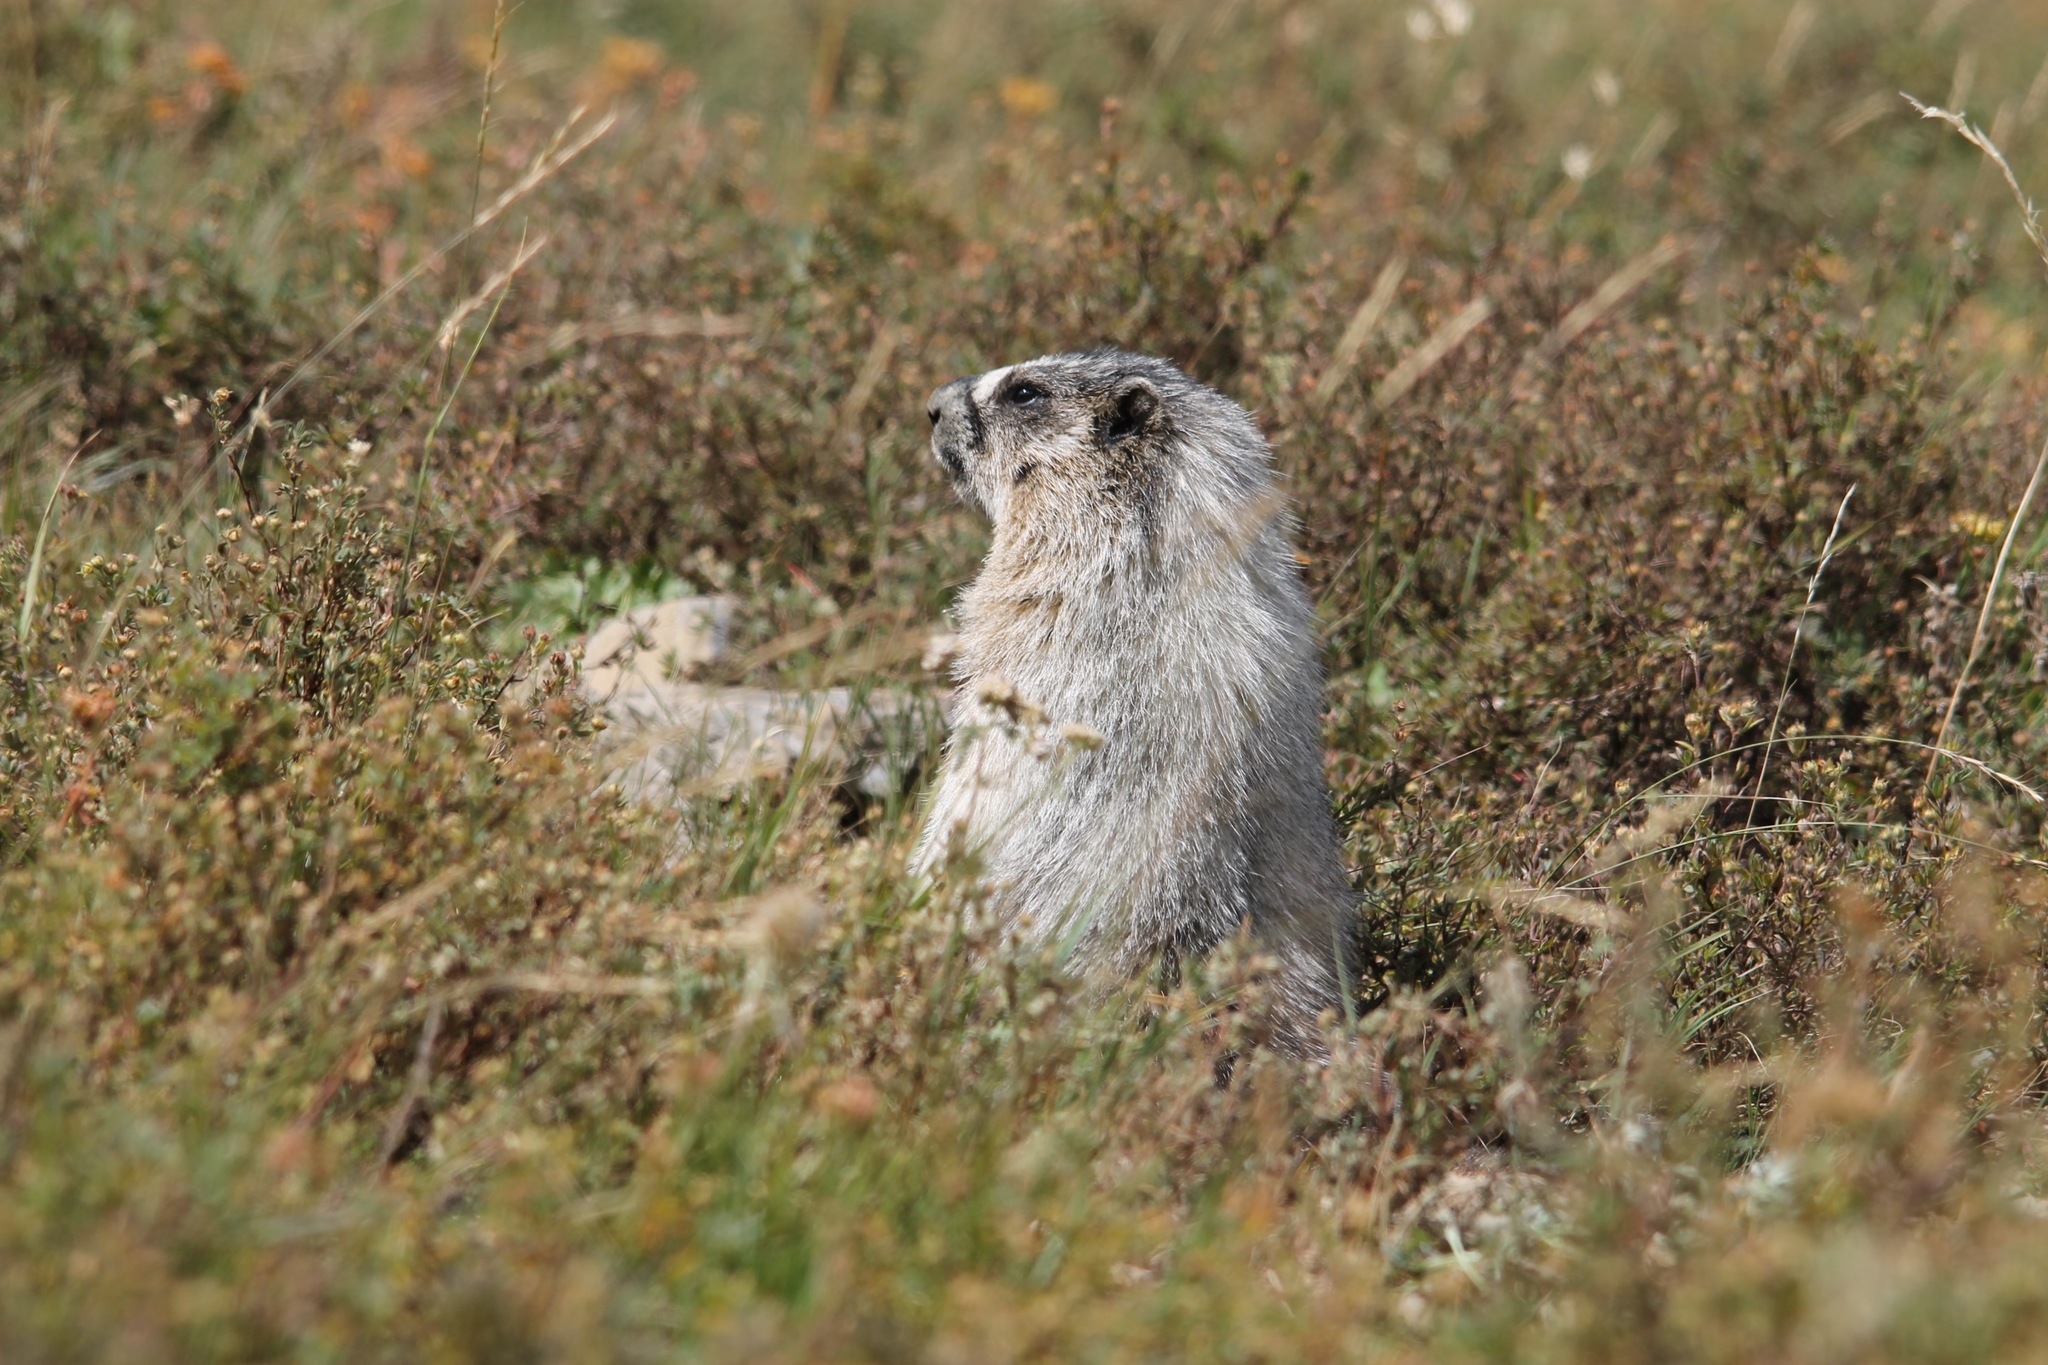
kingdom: Animalia
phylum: Chordata
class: Mammalia
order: Rodentia
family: Sciuridae
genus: Marmota
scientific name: Marmota caligata
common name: Hoary marmot
